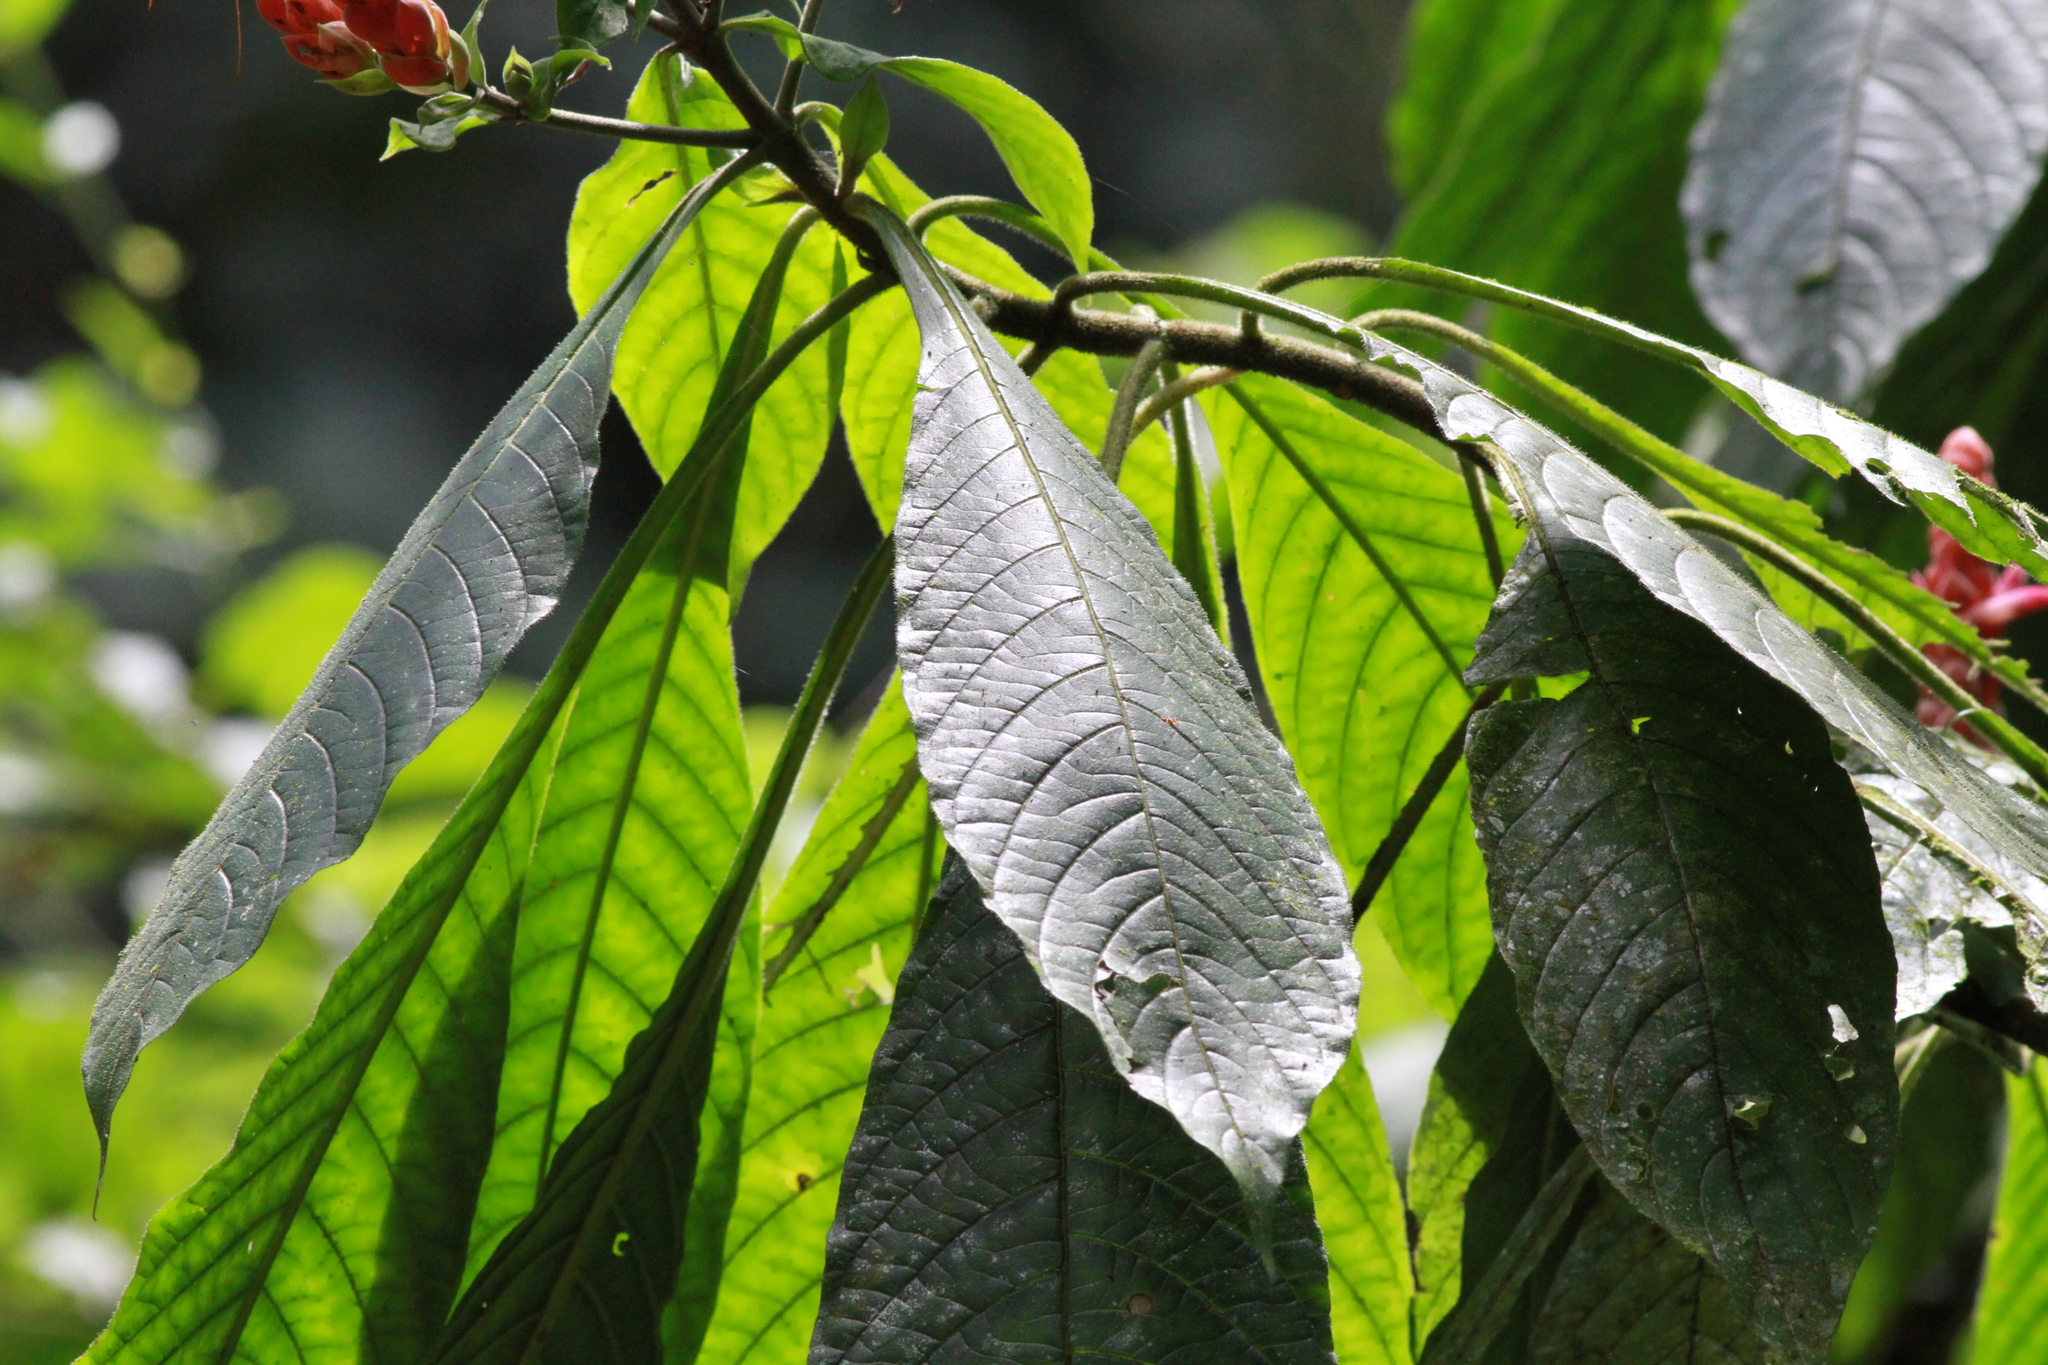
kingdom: Plantae
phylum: Tracheophyta
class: Magnoliopsida
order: Lamiales
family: Acanthaceae
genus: Aphelandra
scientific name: Aphelandra sinclairiana
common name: Coral aphelandra
